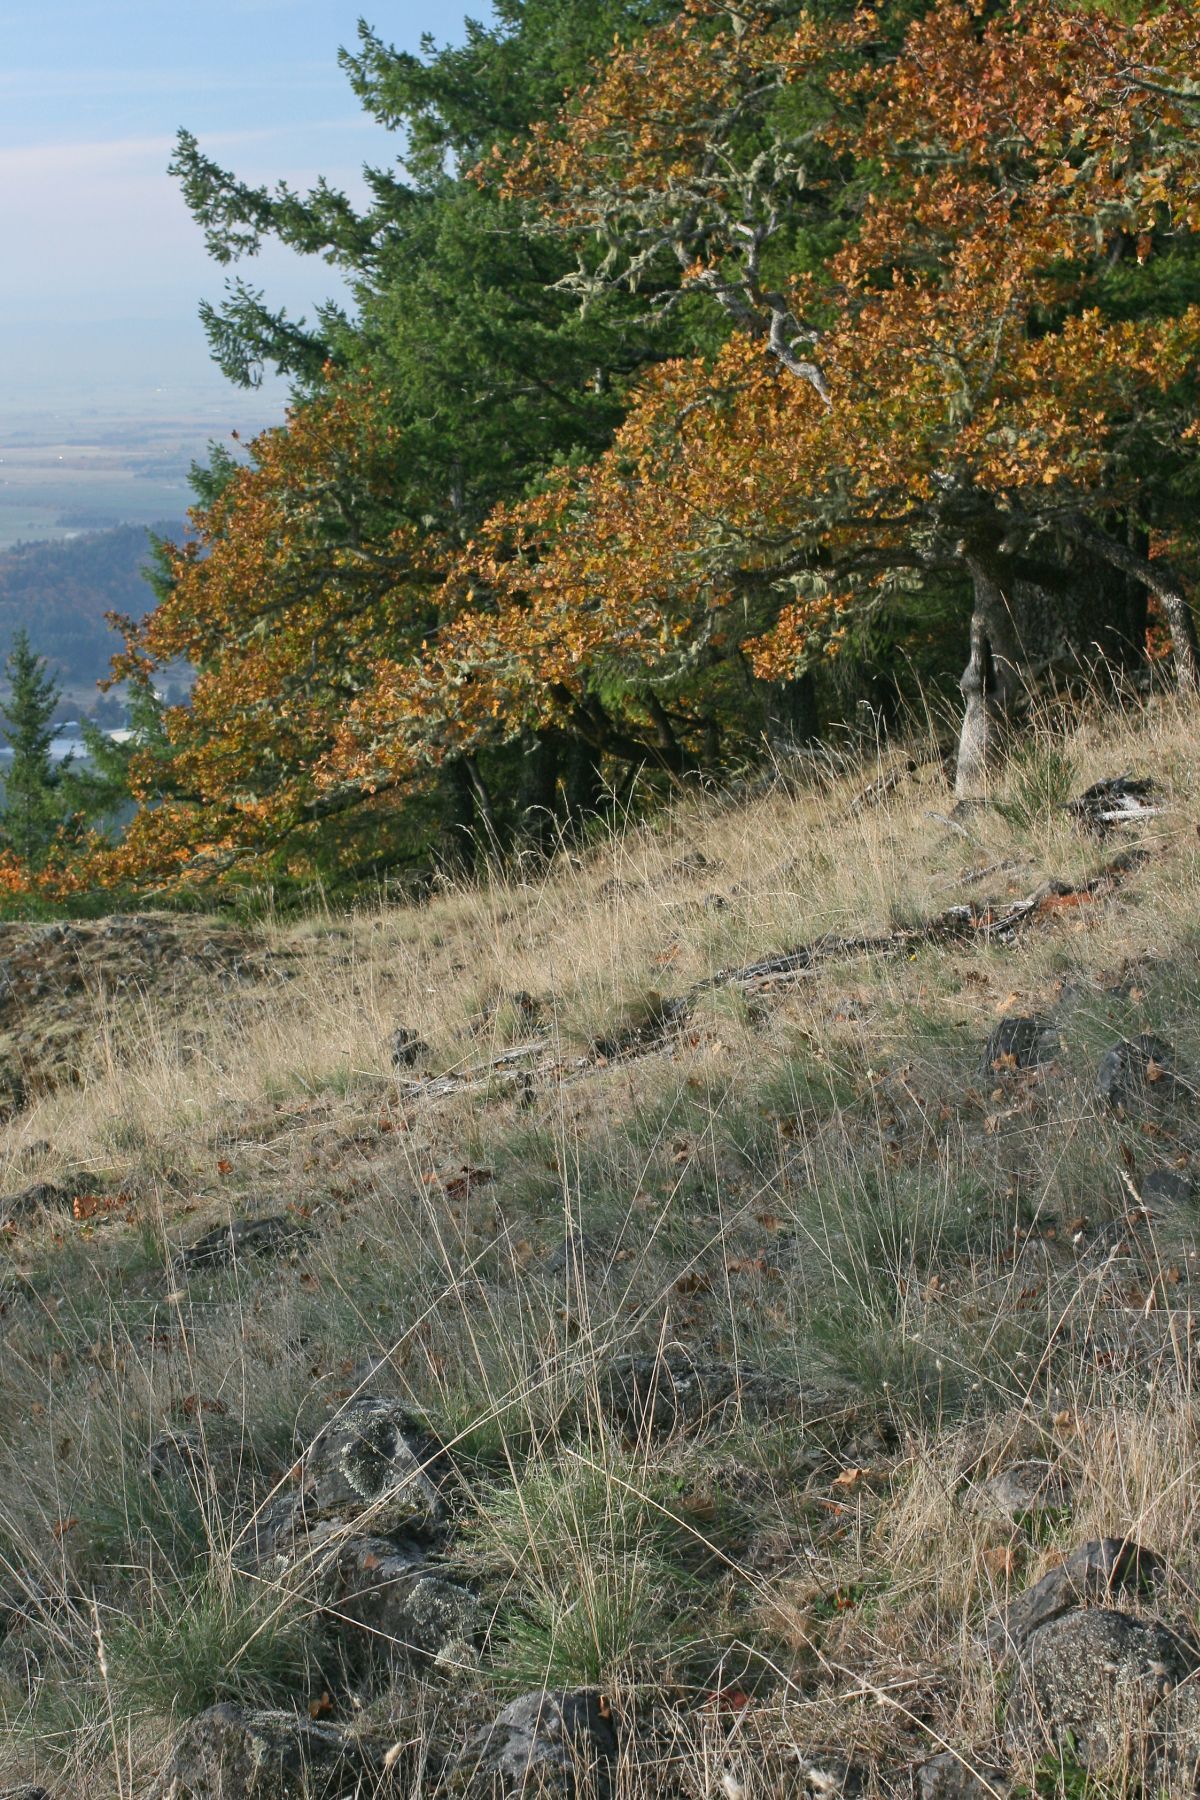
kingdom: Plantae
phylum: Tracheophyta
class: Magnoliopsida
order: Fagales
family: Fagaceae
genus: Quercus
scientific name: Quercus garryana
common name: Garry oak
